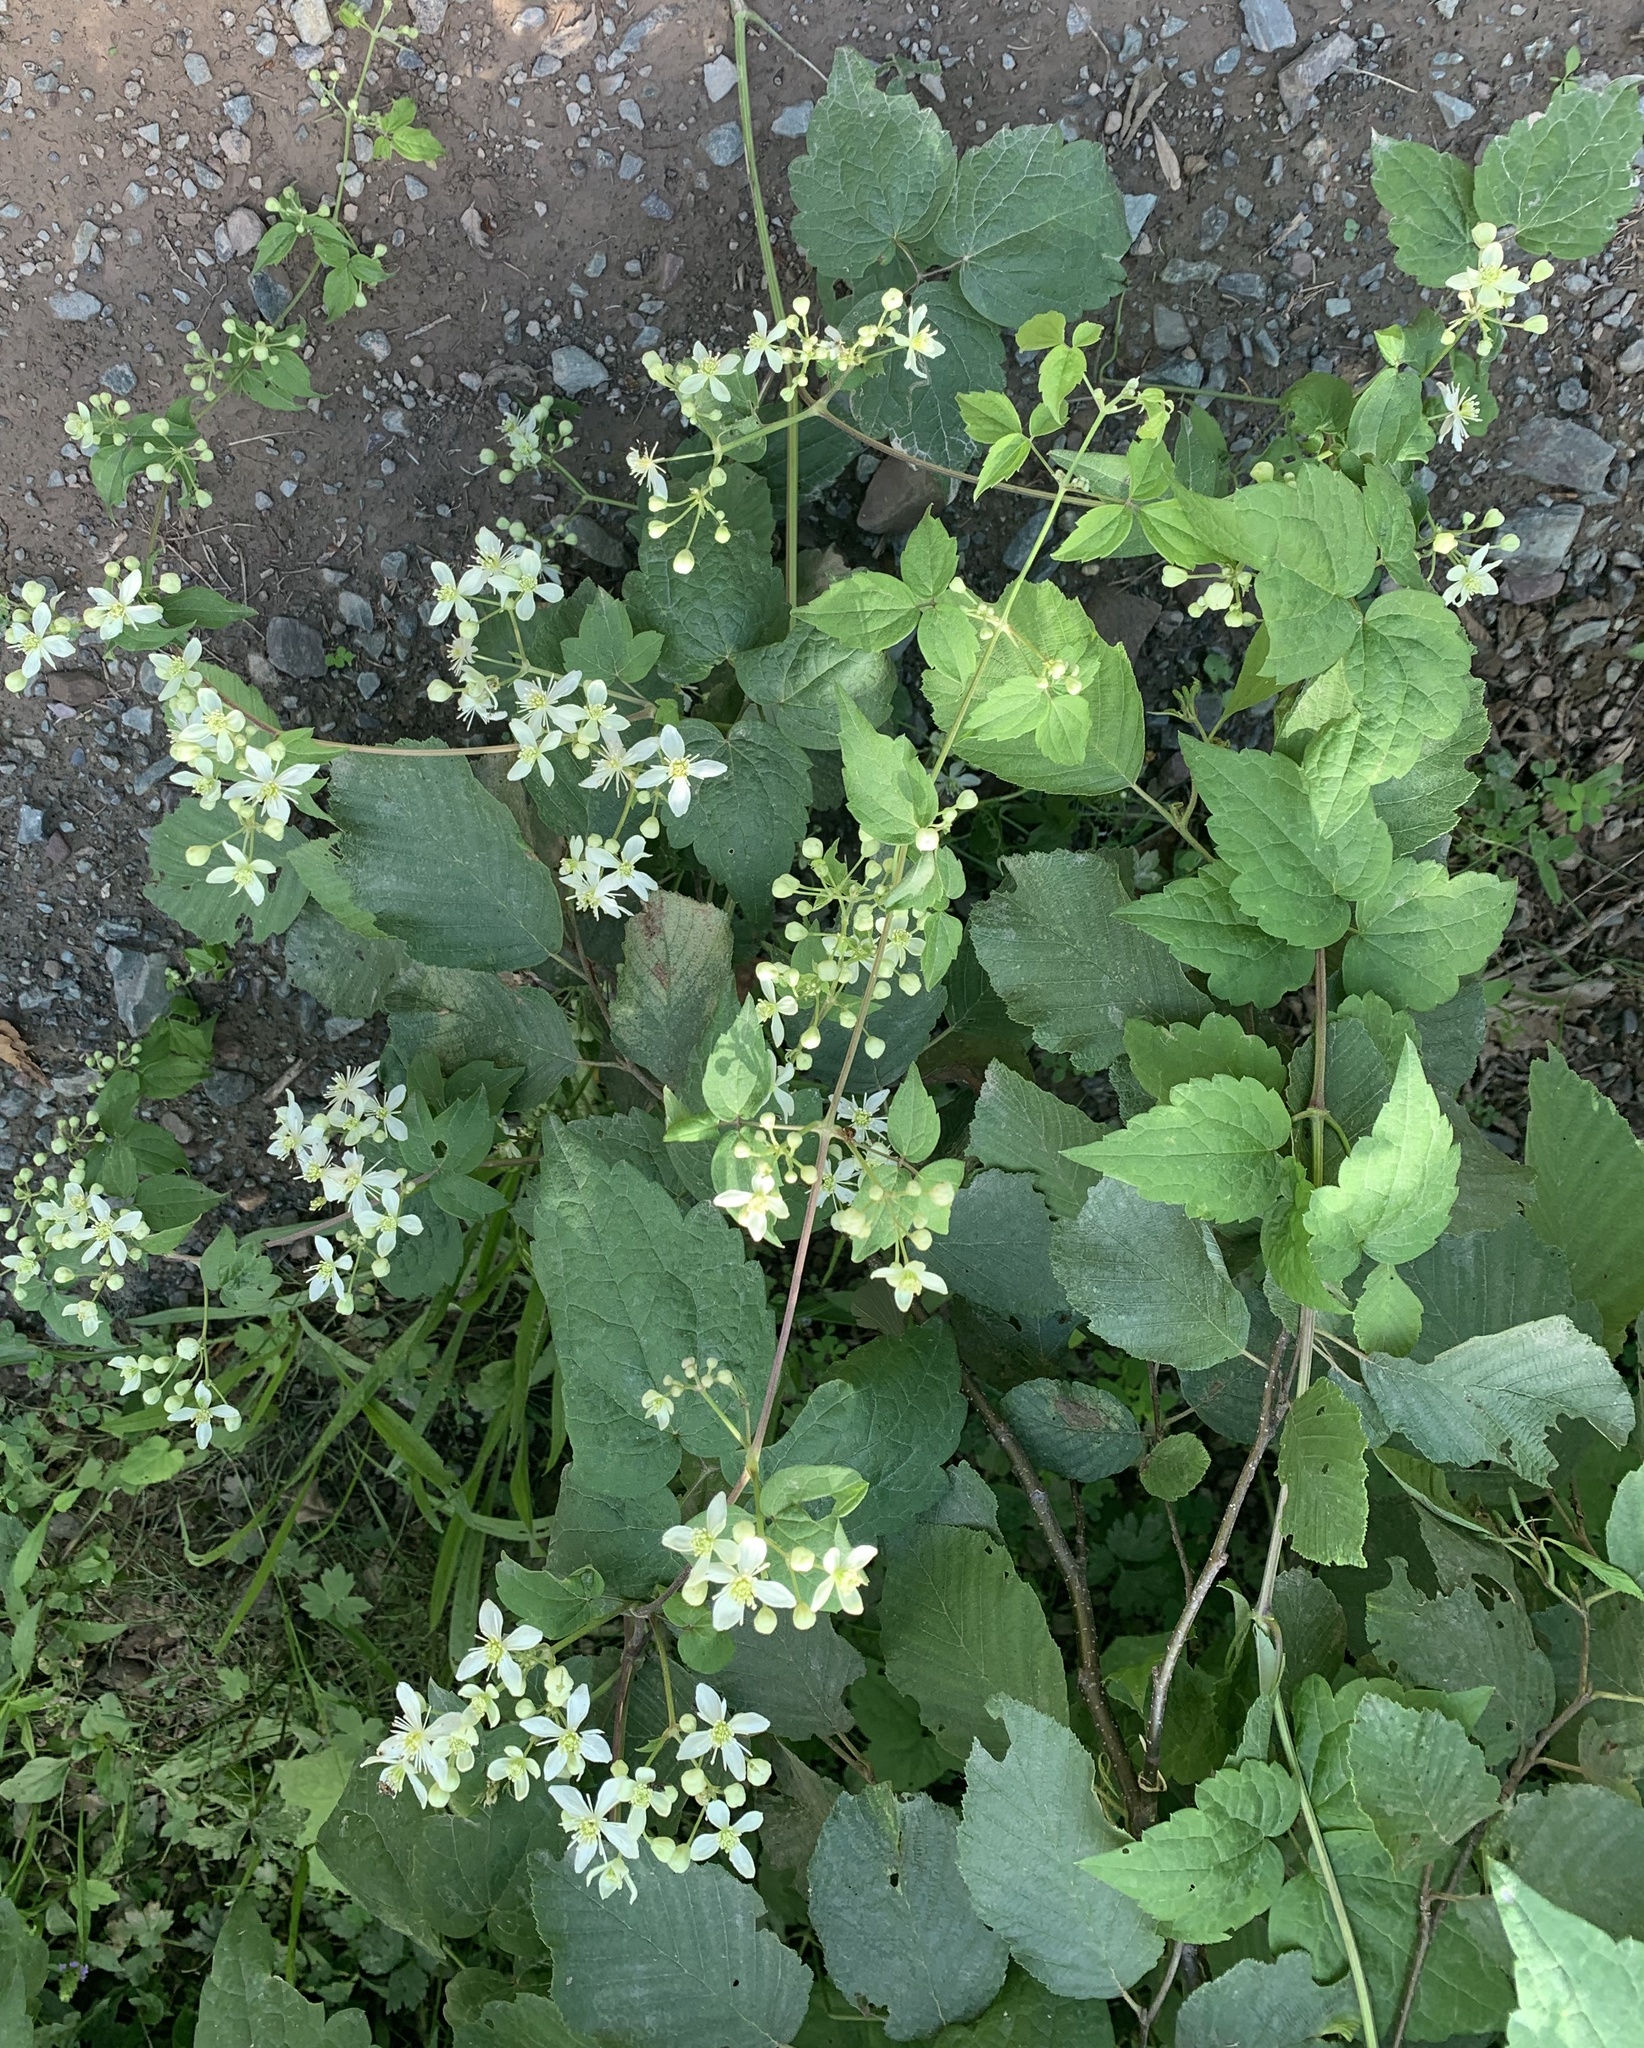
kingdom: Plantae
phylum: Tracheophyta
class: Magnoliopsida
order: Ranunculales
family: Ranunculaceae
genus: Clematis
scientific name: Clematis virginiana
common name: Virgin's-bower
